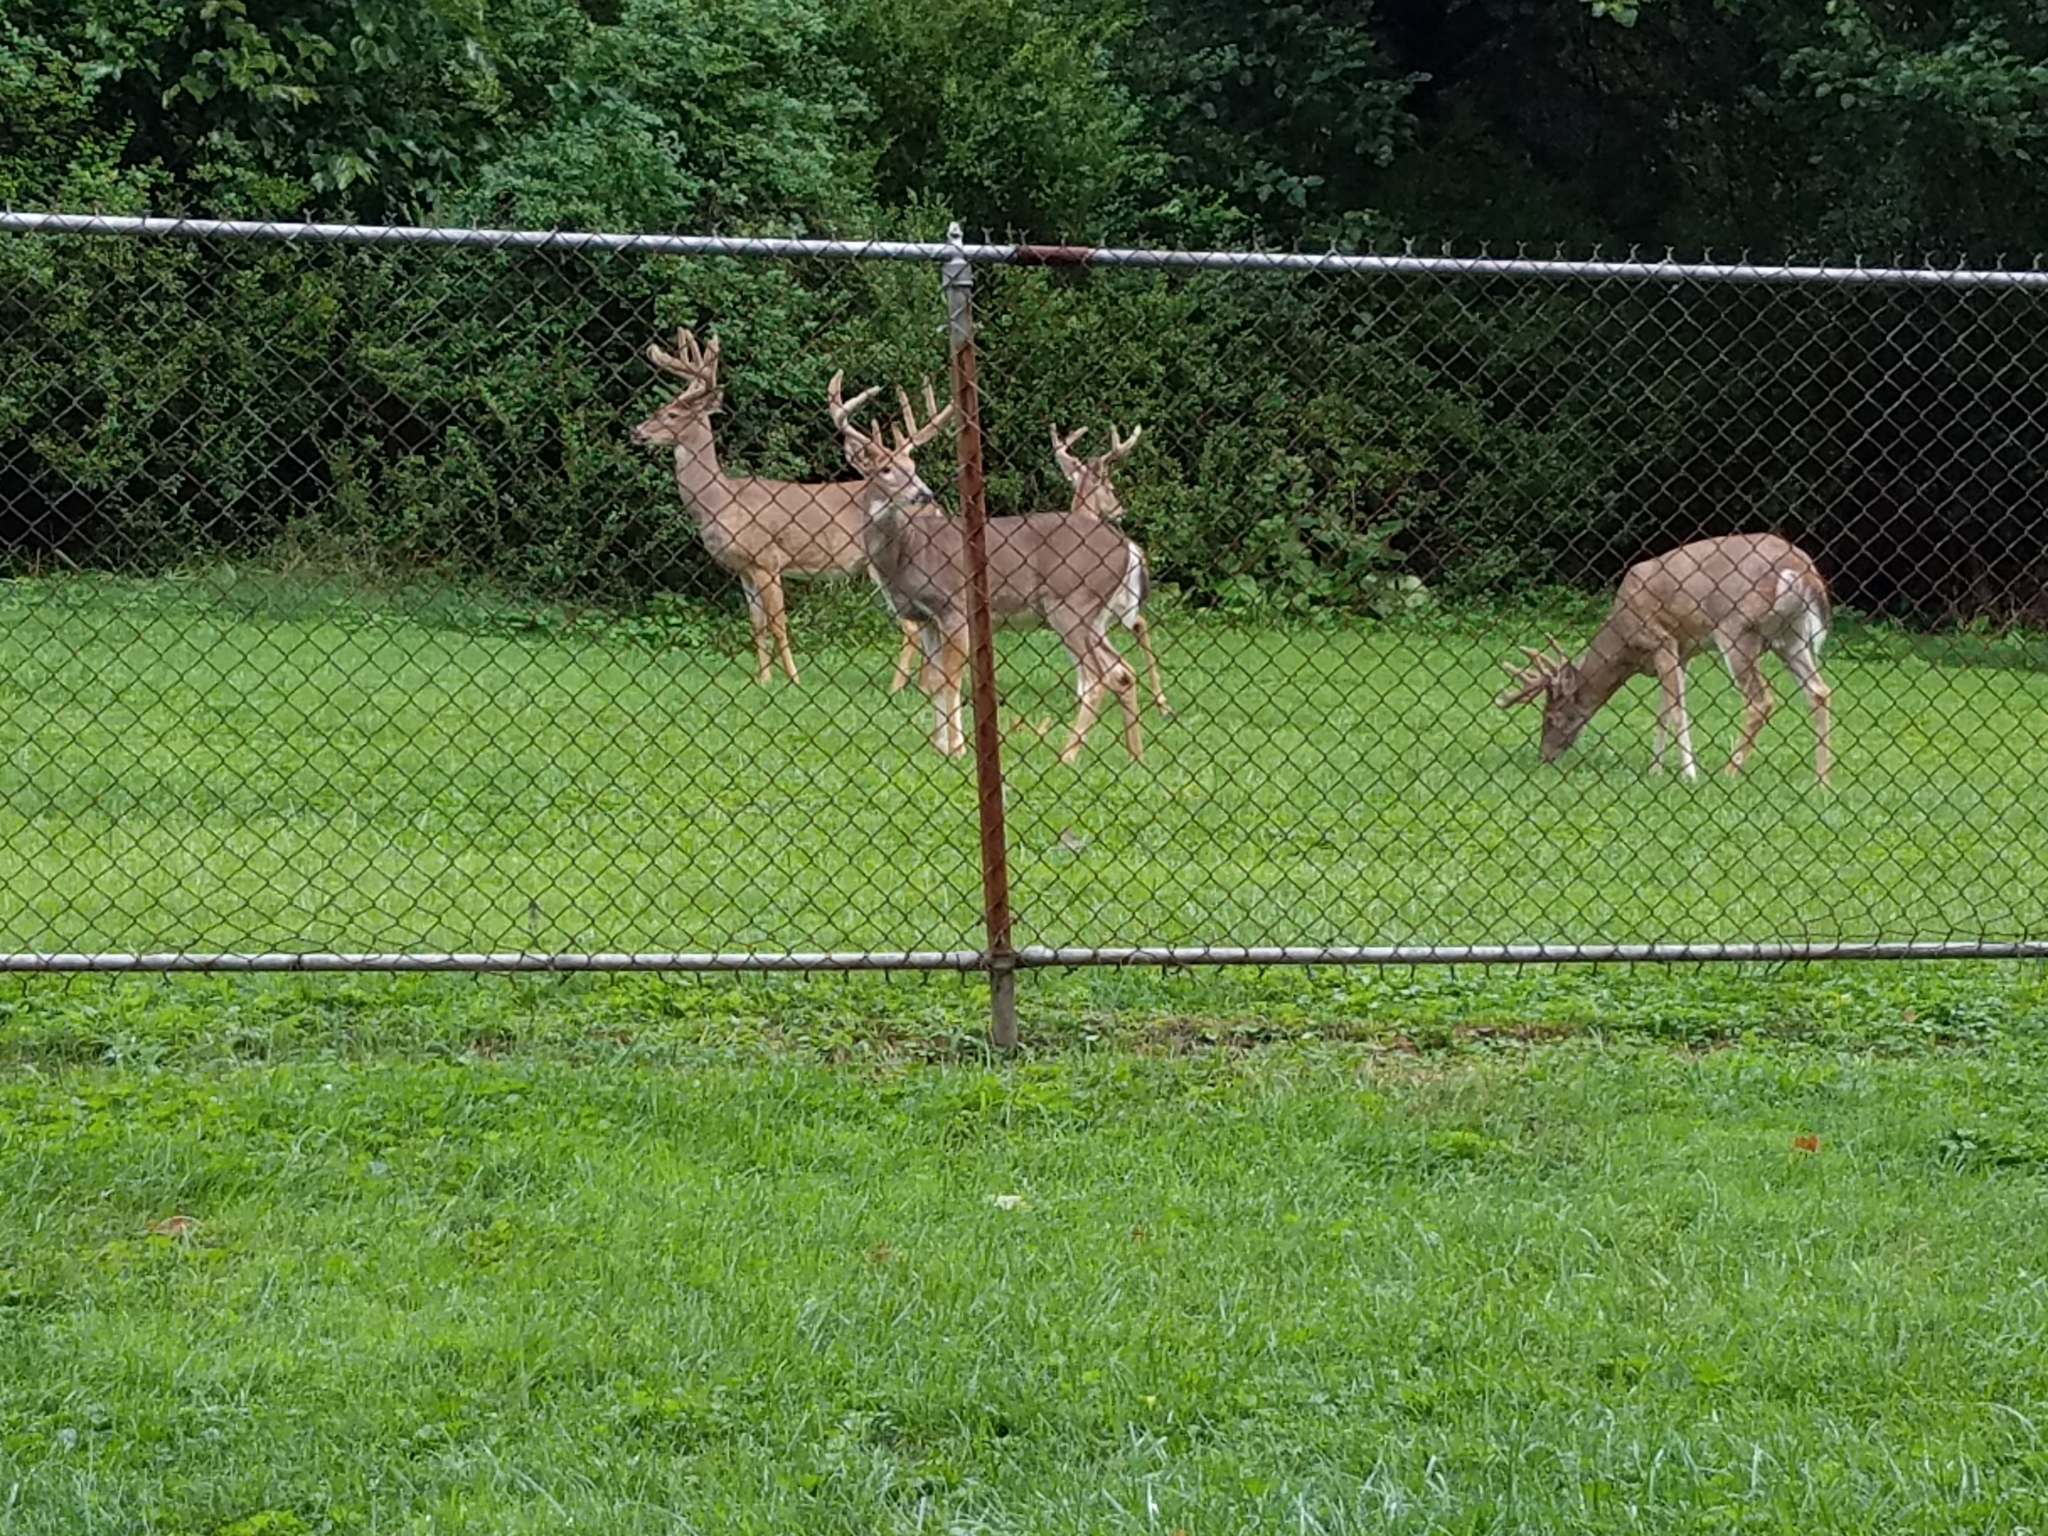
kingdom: Animalia
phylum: Chordata
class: Mammalia
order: Artiodactyla
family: Cervidae
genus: Odocoileus
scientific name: Odocoileus virginianus
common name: White-tailed deer
